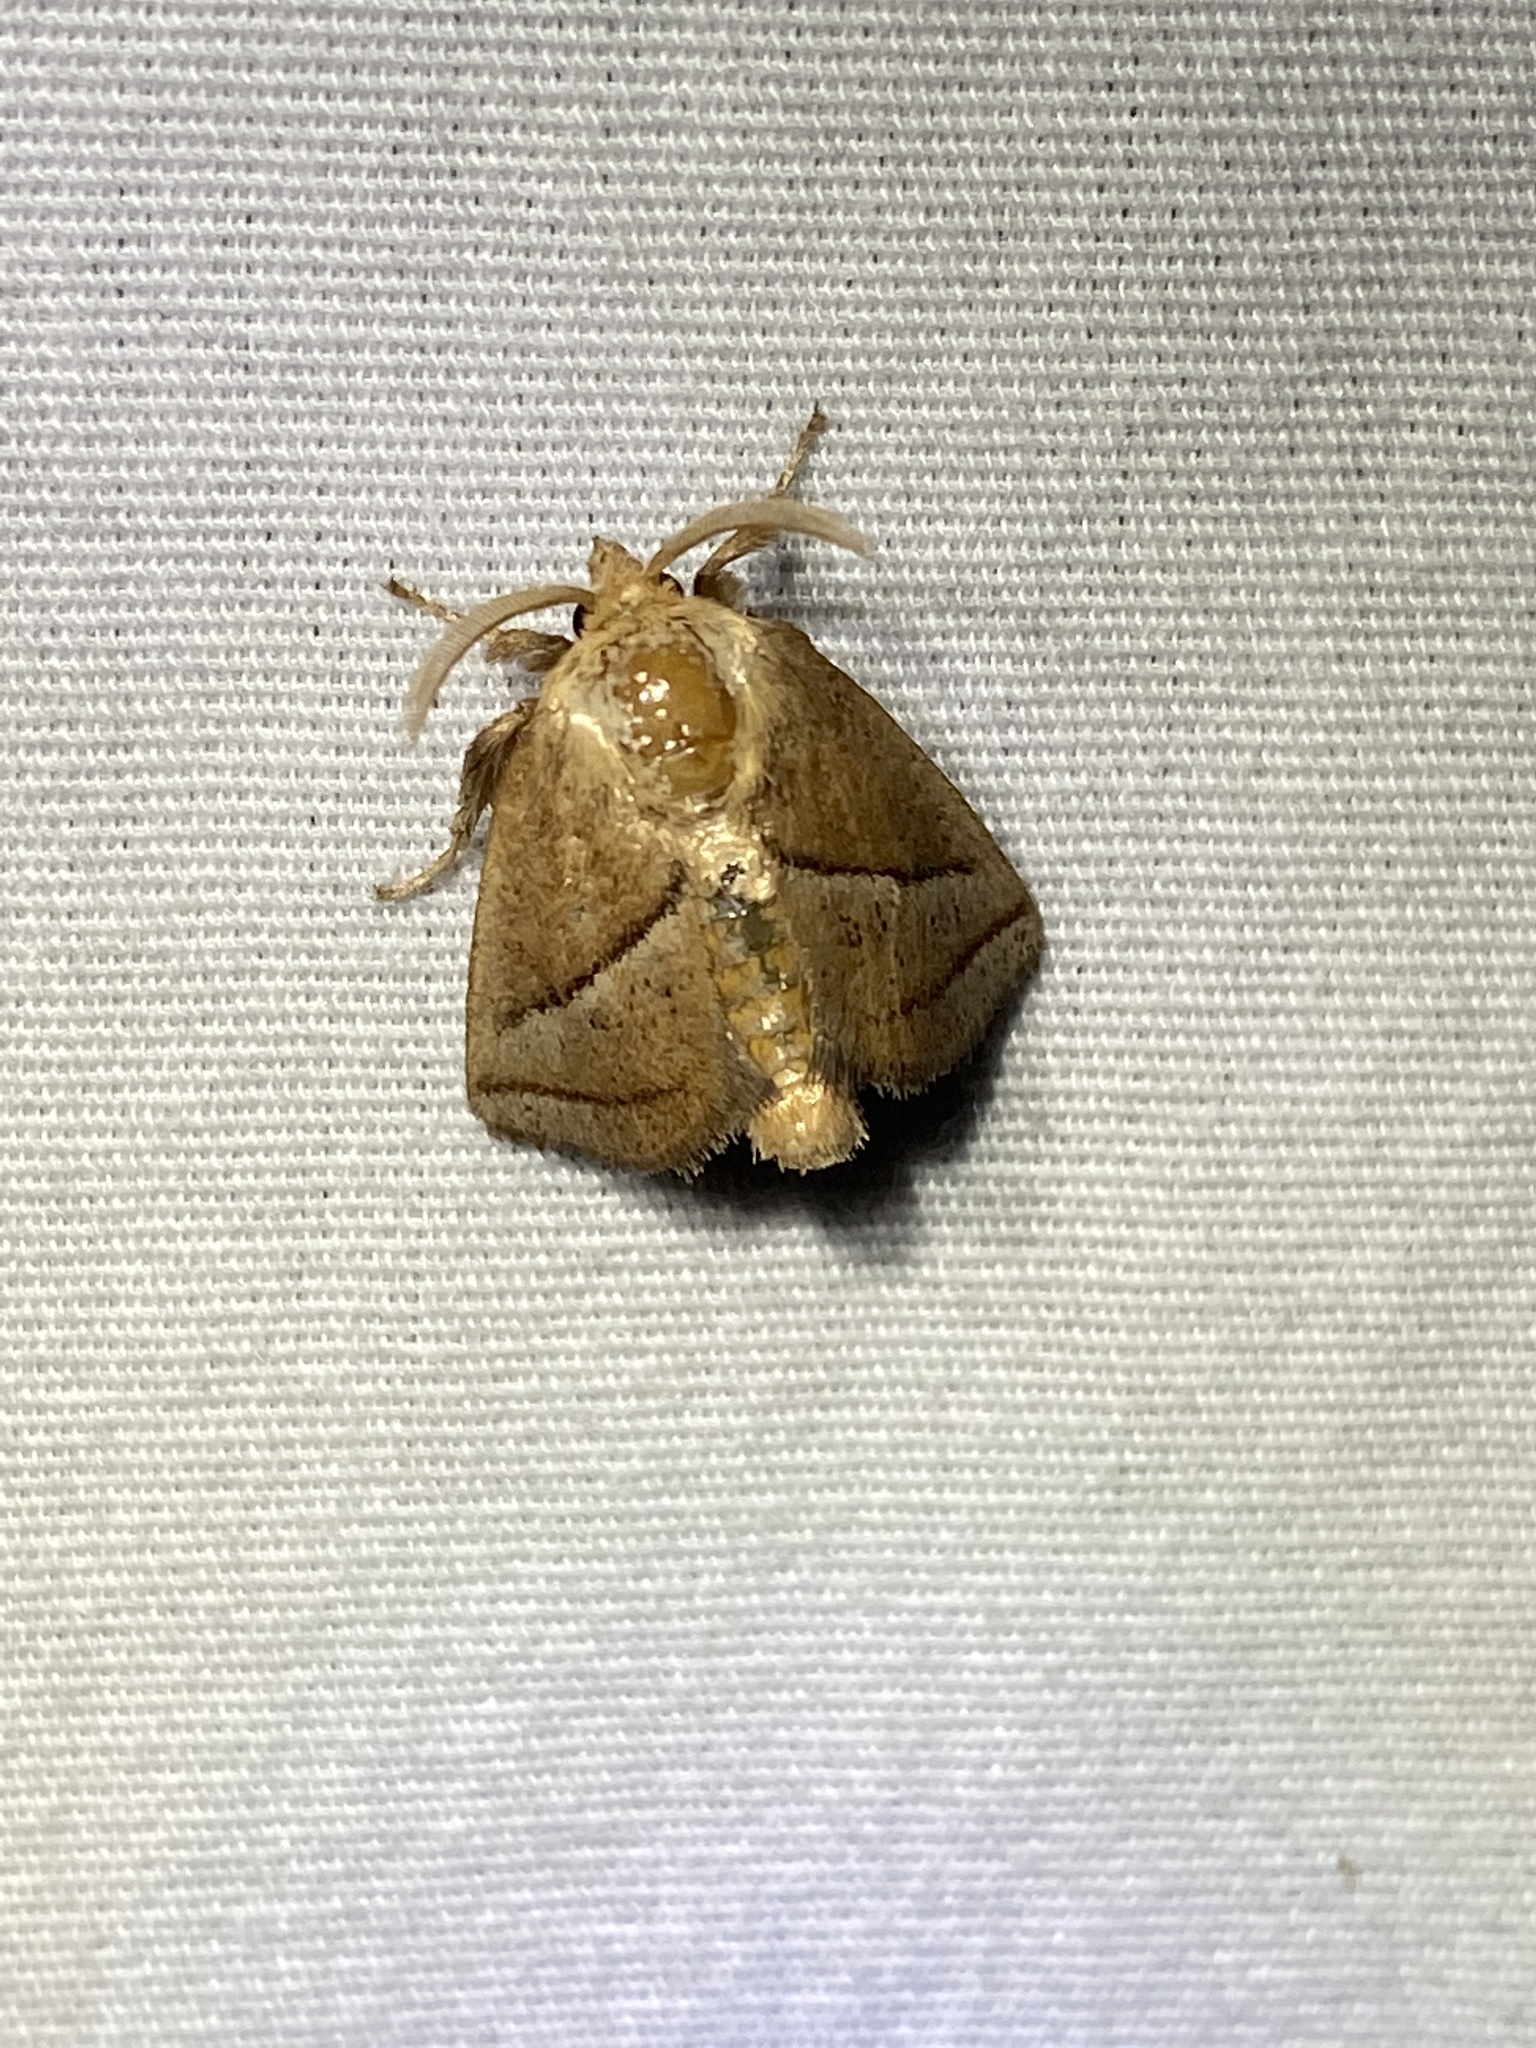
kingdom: Animalia
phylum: Arthropoda
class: Insecta
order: Lepidoptera
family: Limacodidae
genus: Natada
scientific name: Natada nasoni
